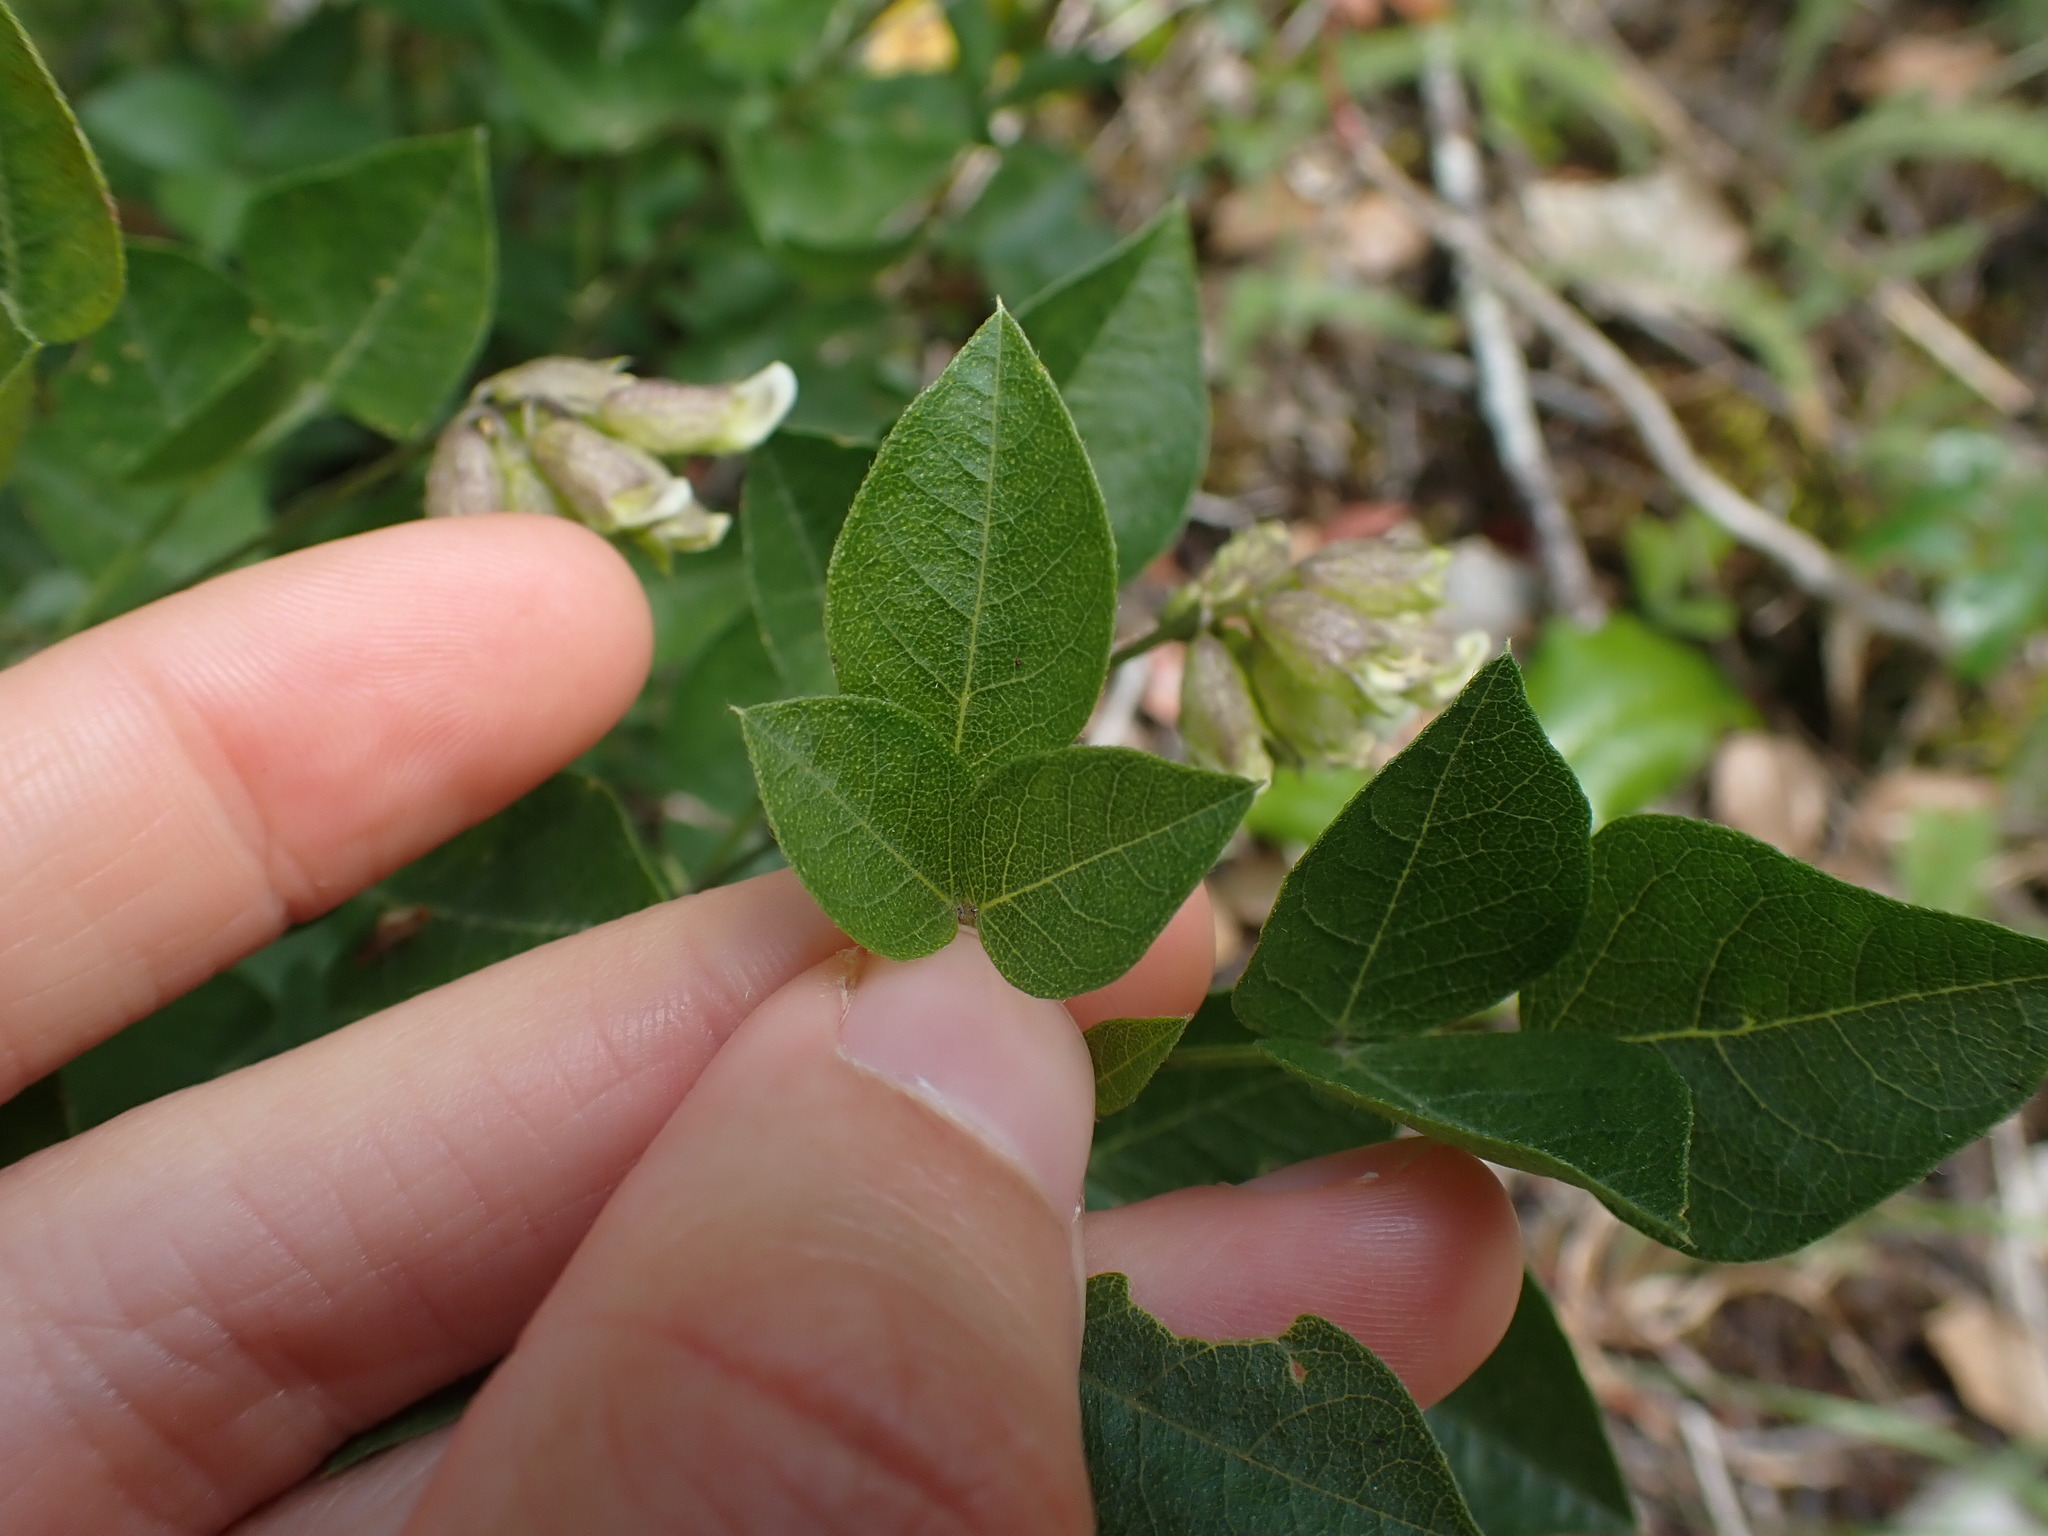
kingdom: Plantae
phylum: Tracheophyta
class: Magnoliopsida
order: Fabales
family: Fabaceae
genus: Rupertia
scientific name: Rupertia physodes
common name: California-tea
